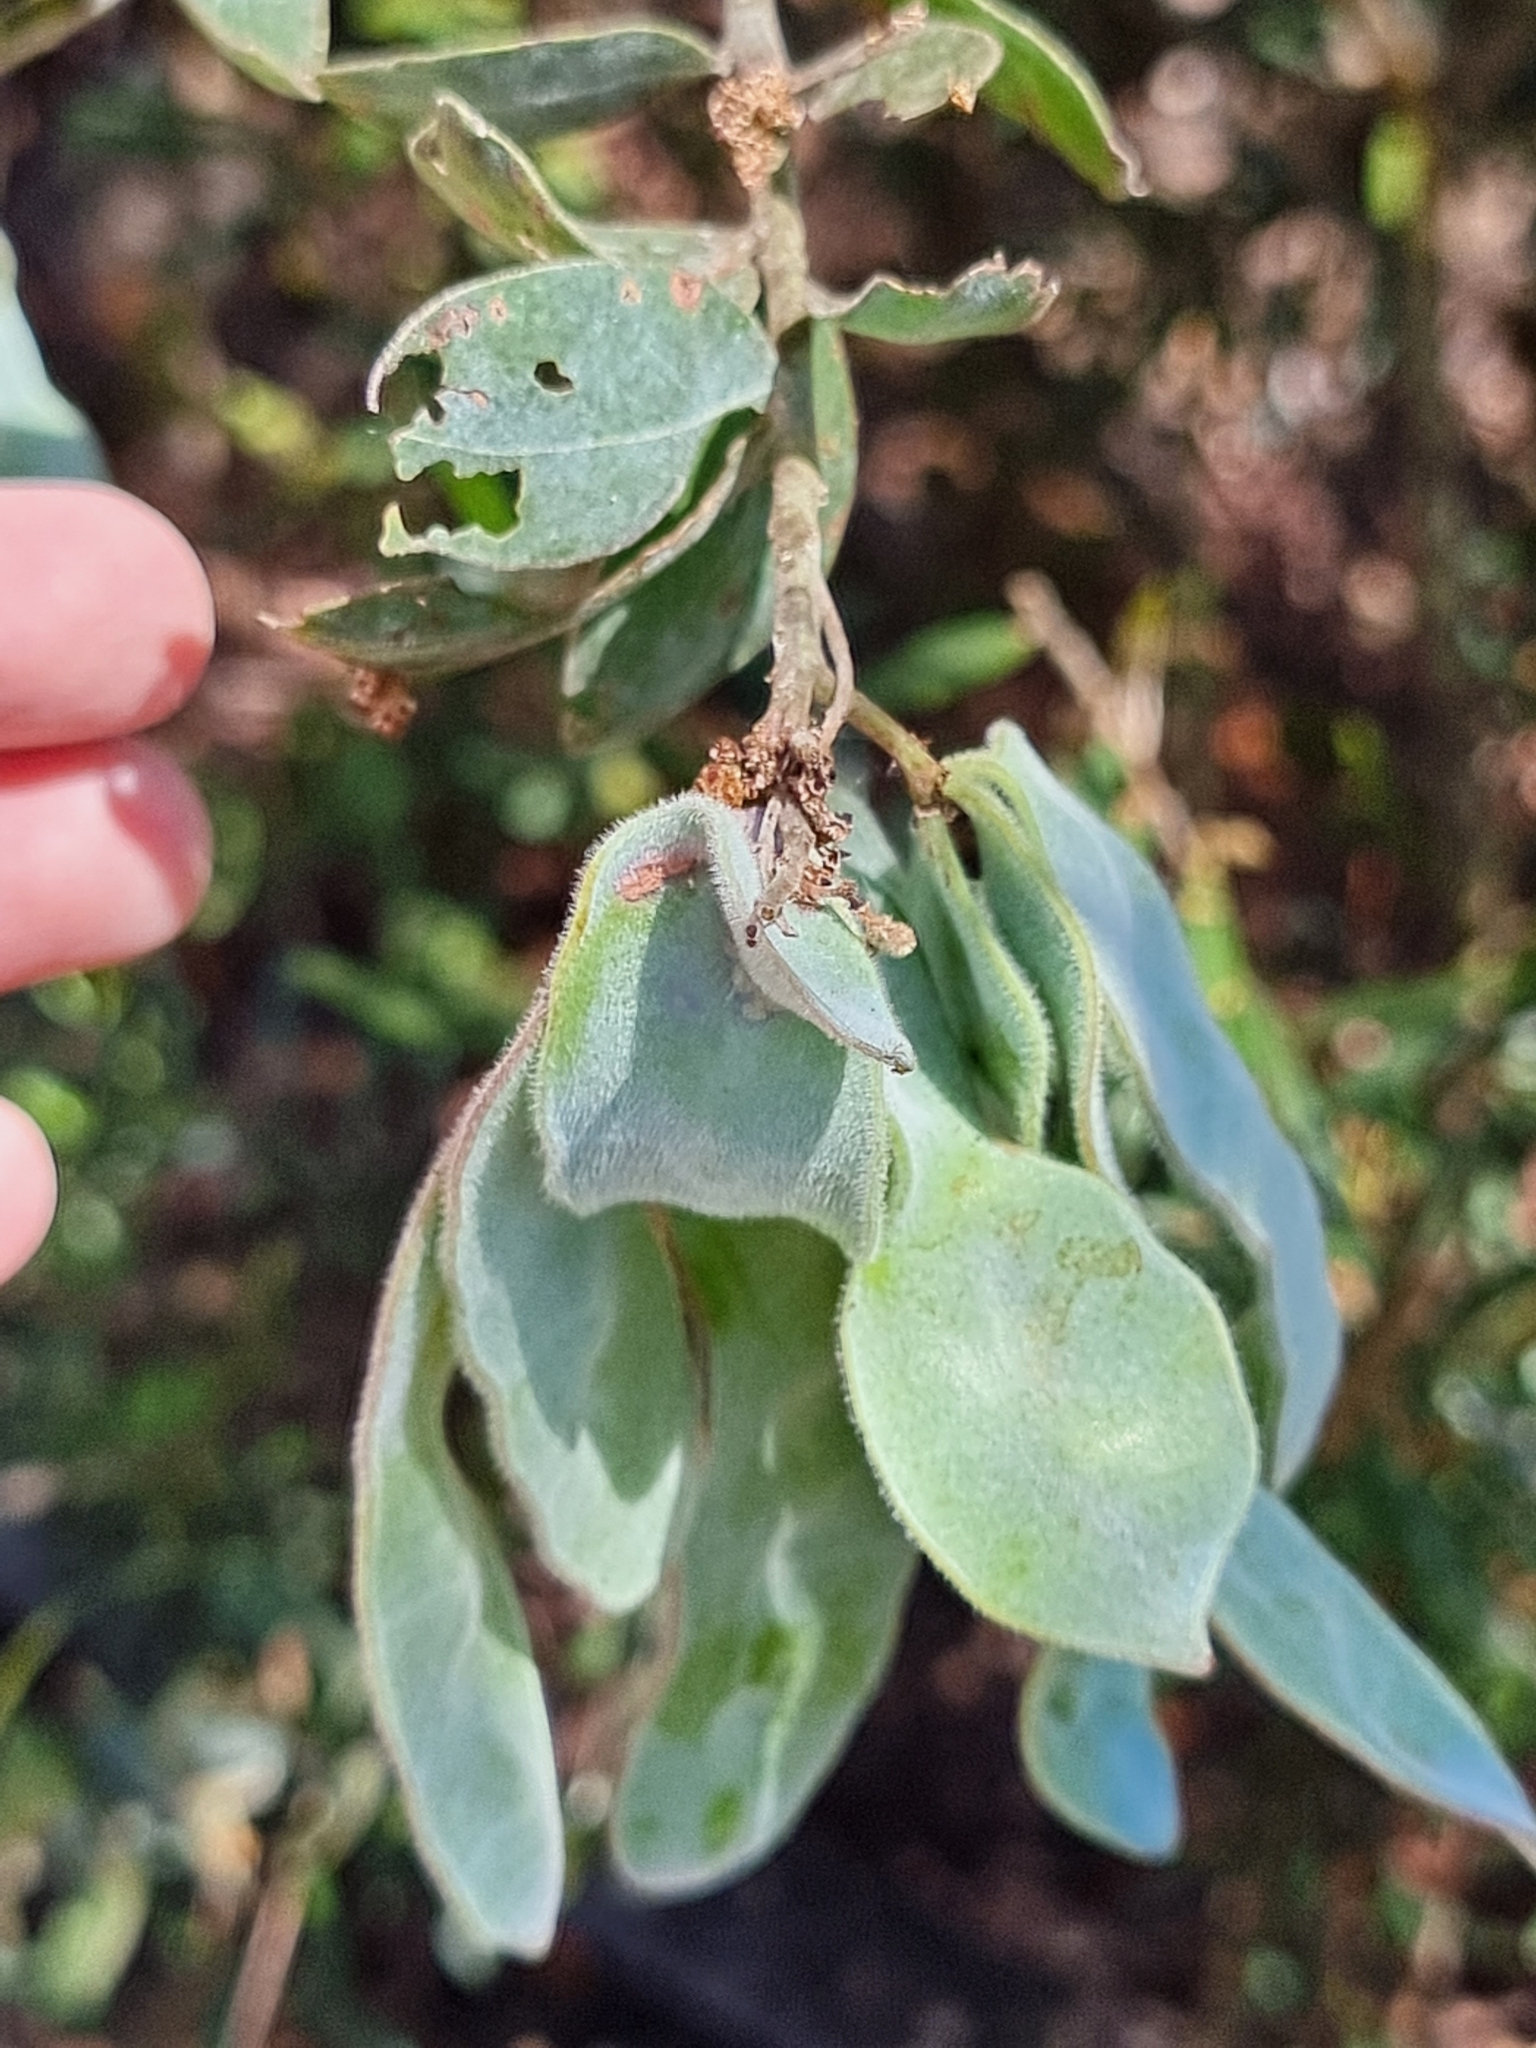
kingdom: Plantae
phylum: Tracheophyta
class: Magnoliopsida
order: Fabales
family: Fabaceae
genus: Acacia
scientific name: Acacia podalyriifolia
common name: Pearl wattle
